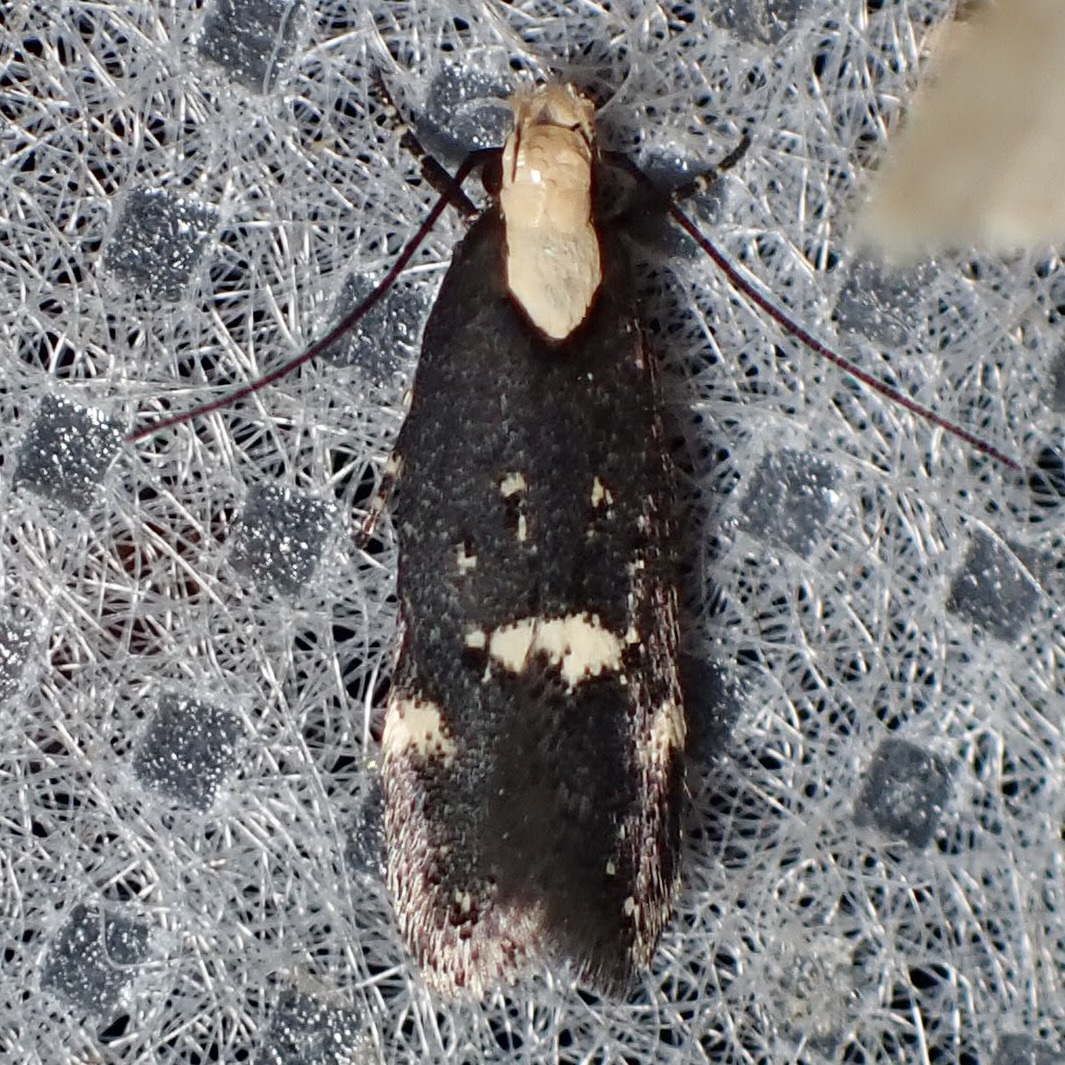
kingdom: Animalia
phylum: Arthropoda
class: Insecta
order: Lepidoptera
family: Gelechiidae
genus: Chionodes
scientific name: Chionodes phalacra
